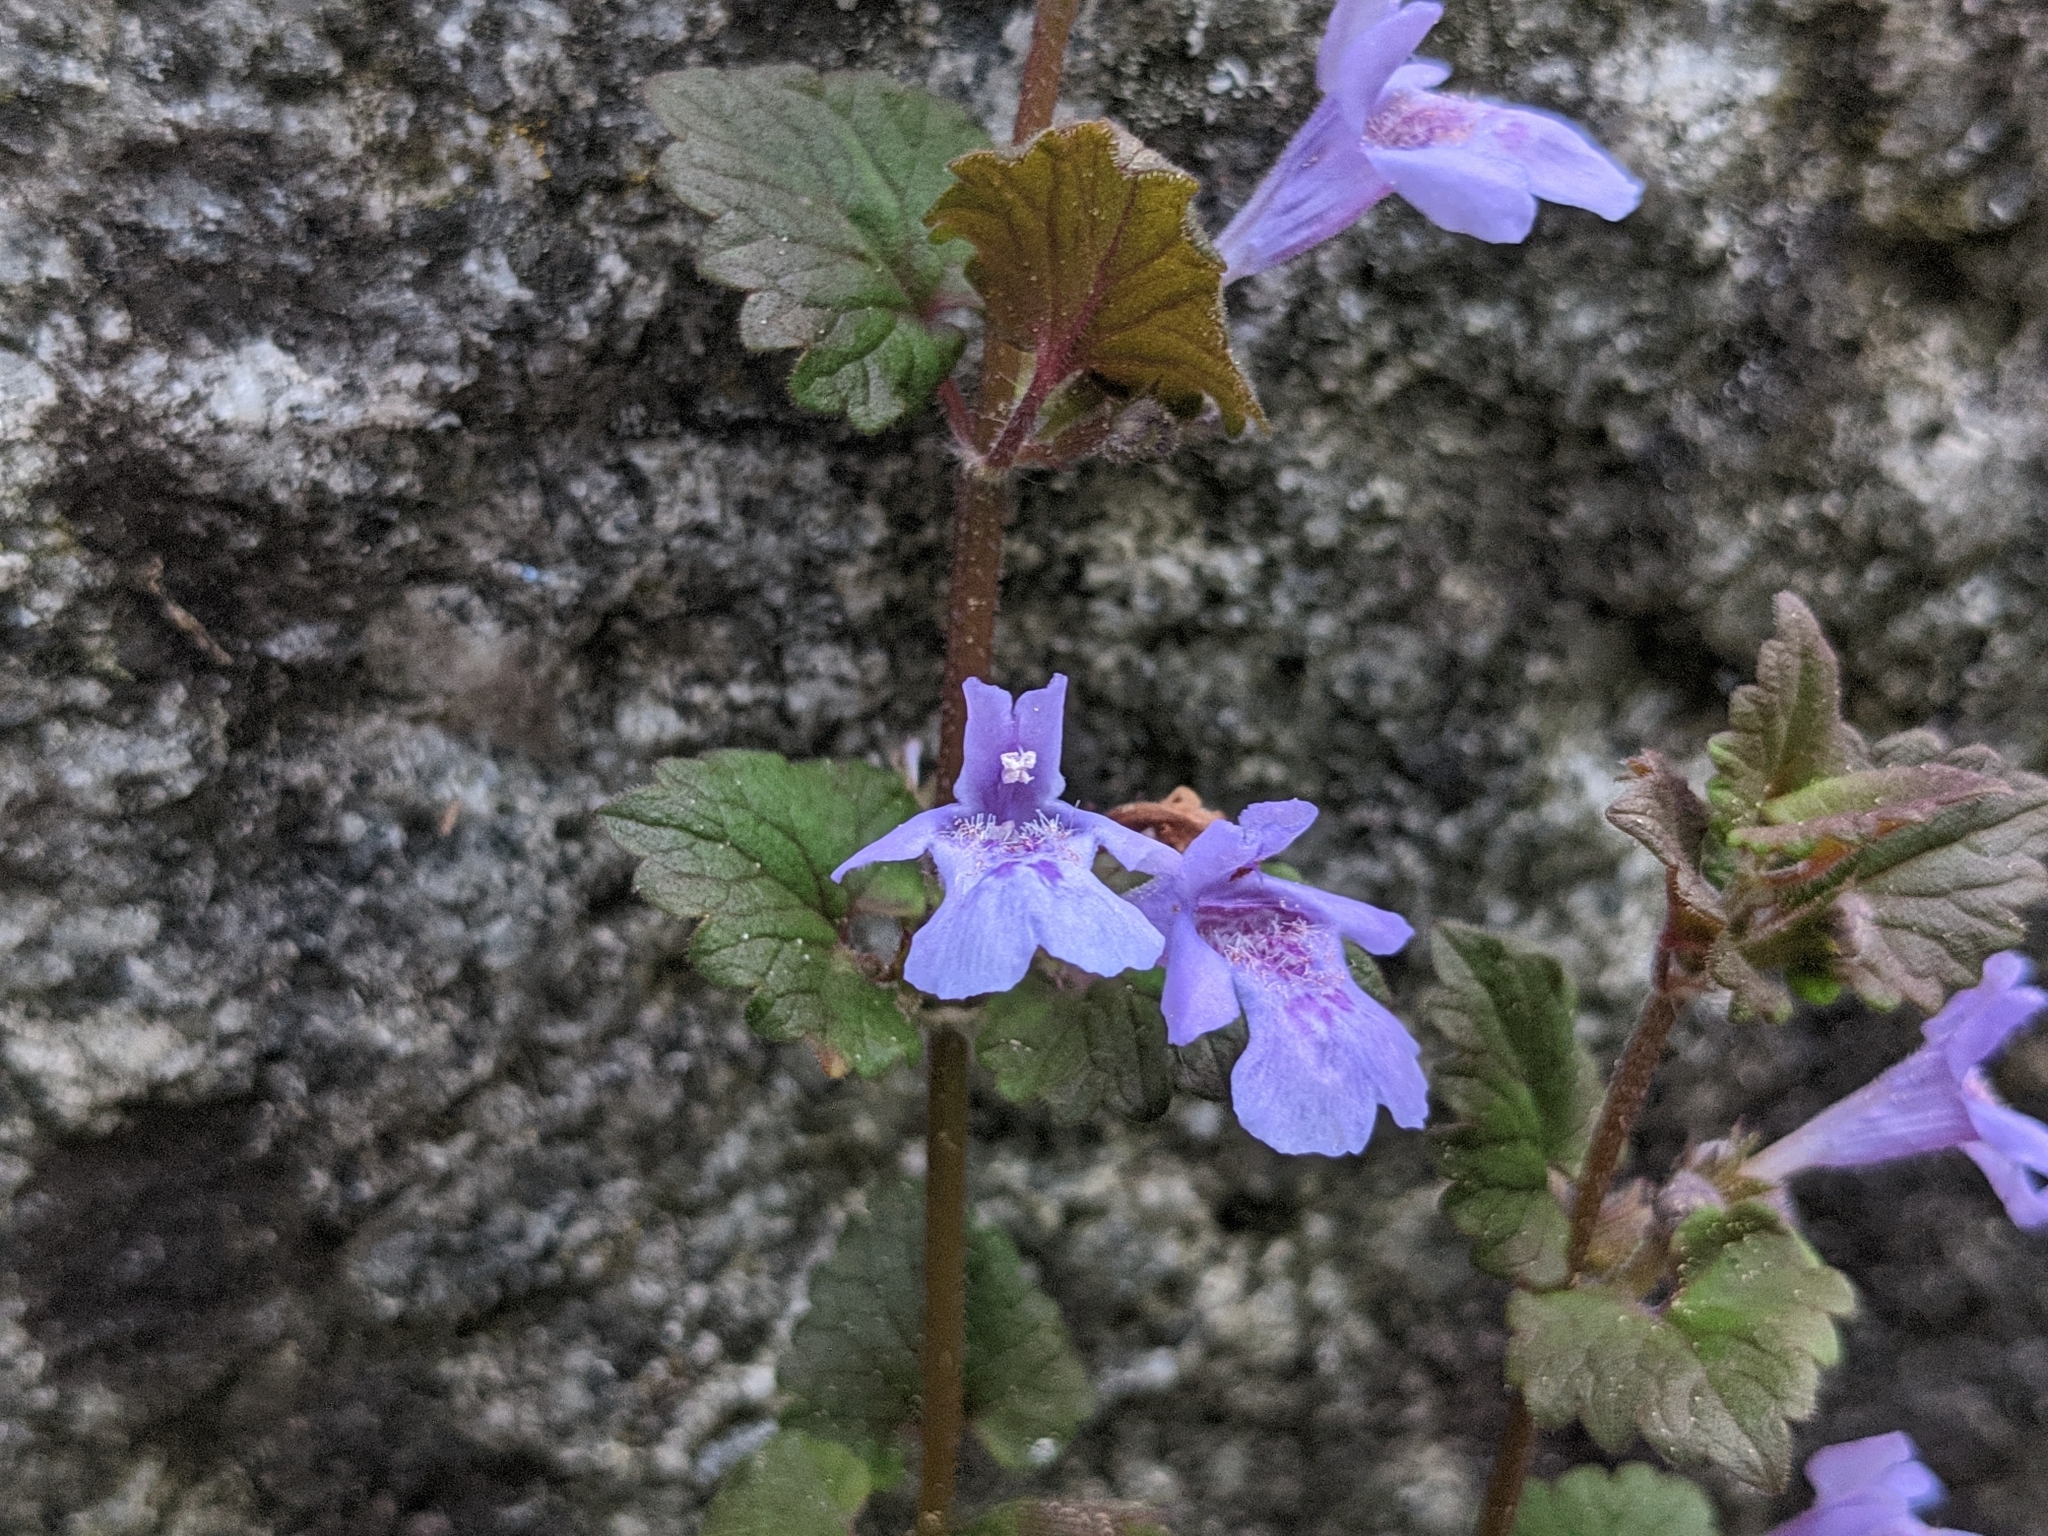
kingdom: Plantae
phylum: Tracheophyta
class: Magnoliopsida
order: Lamiales
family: Lamiaceae
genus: Glechoma
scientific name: Glechoma hederacea
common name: Ground ivy
